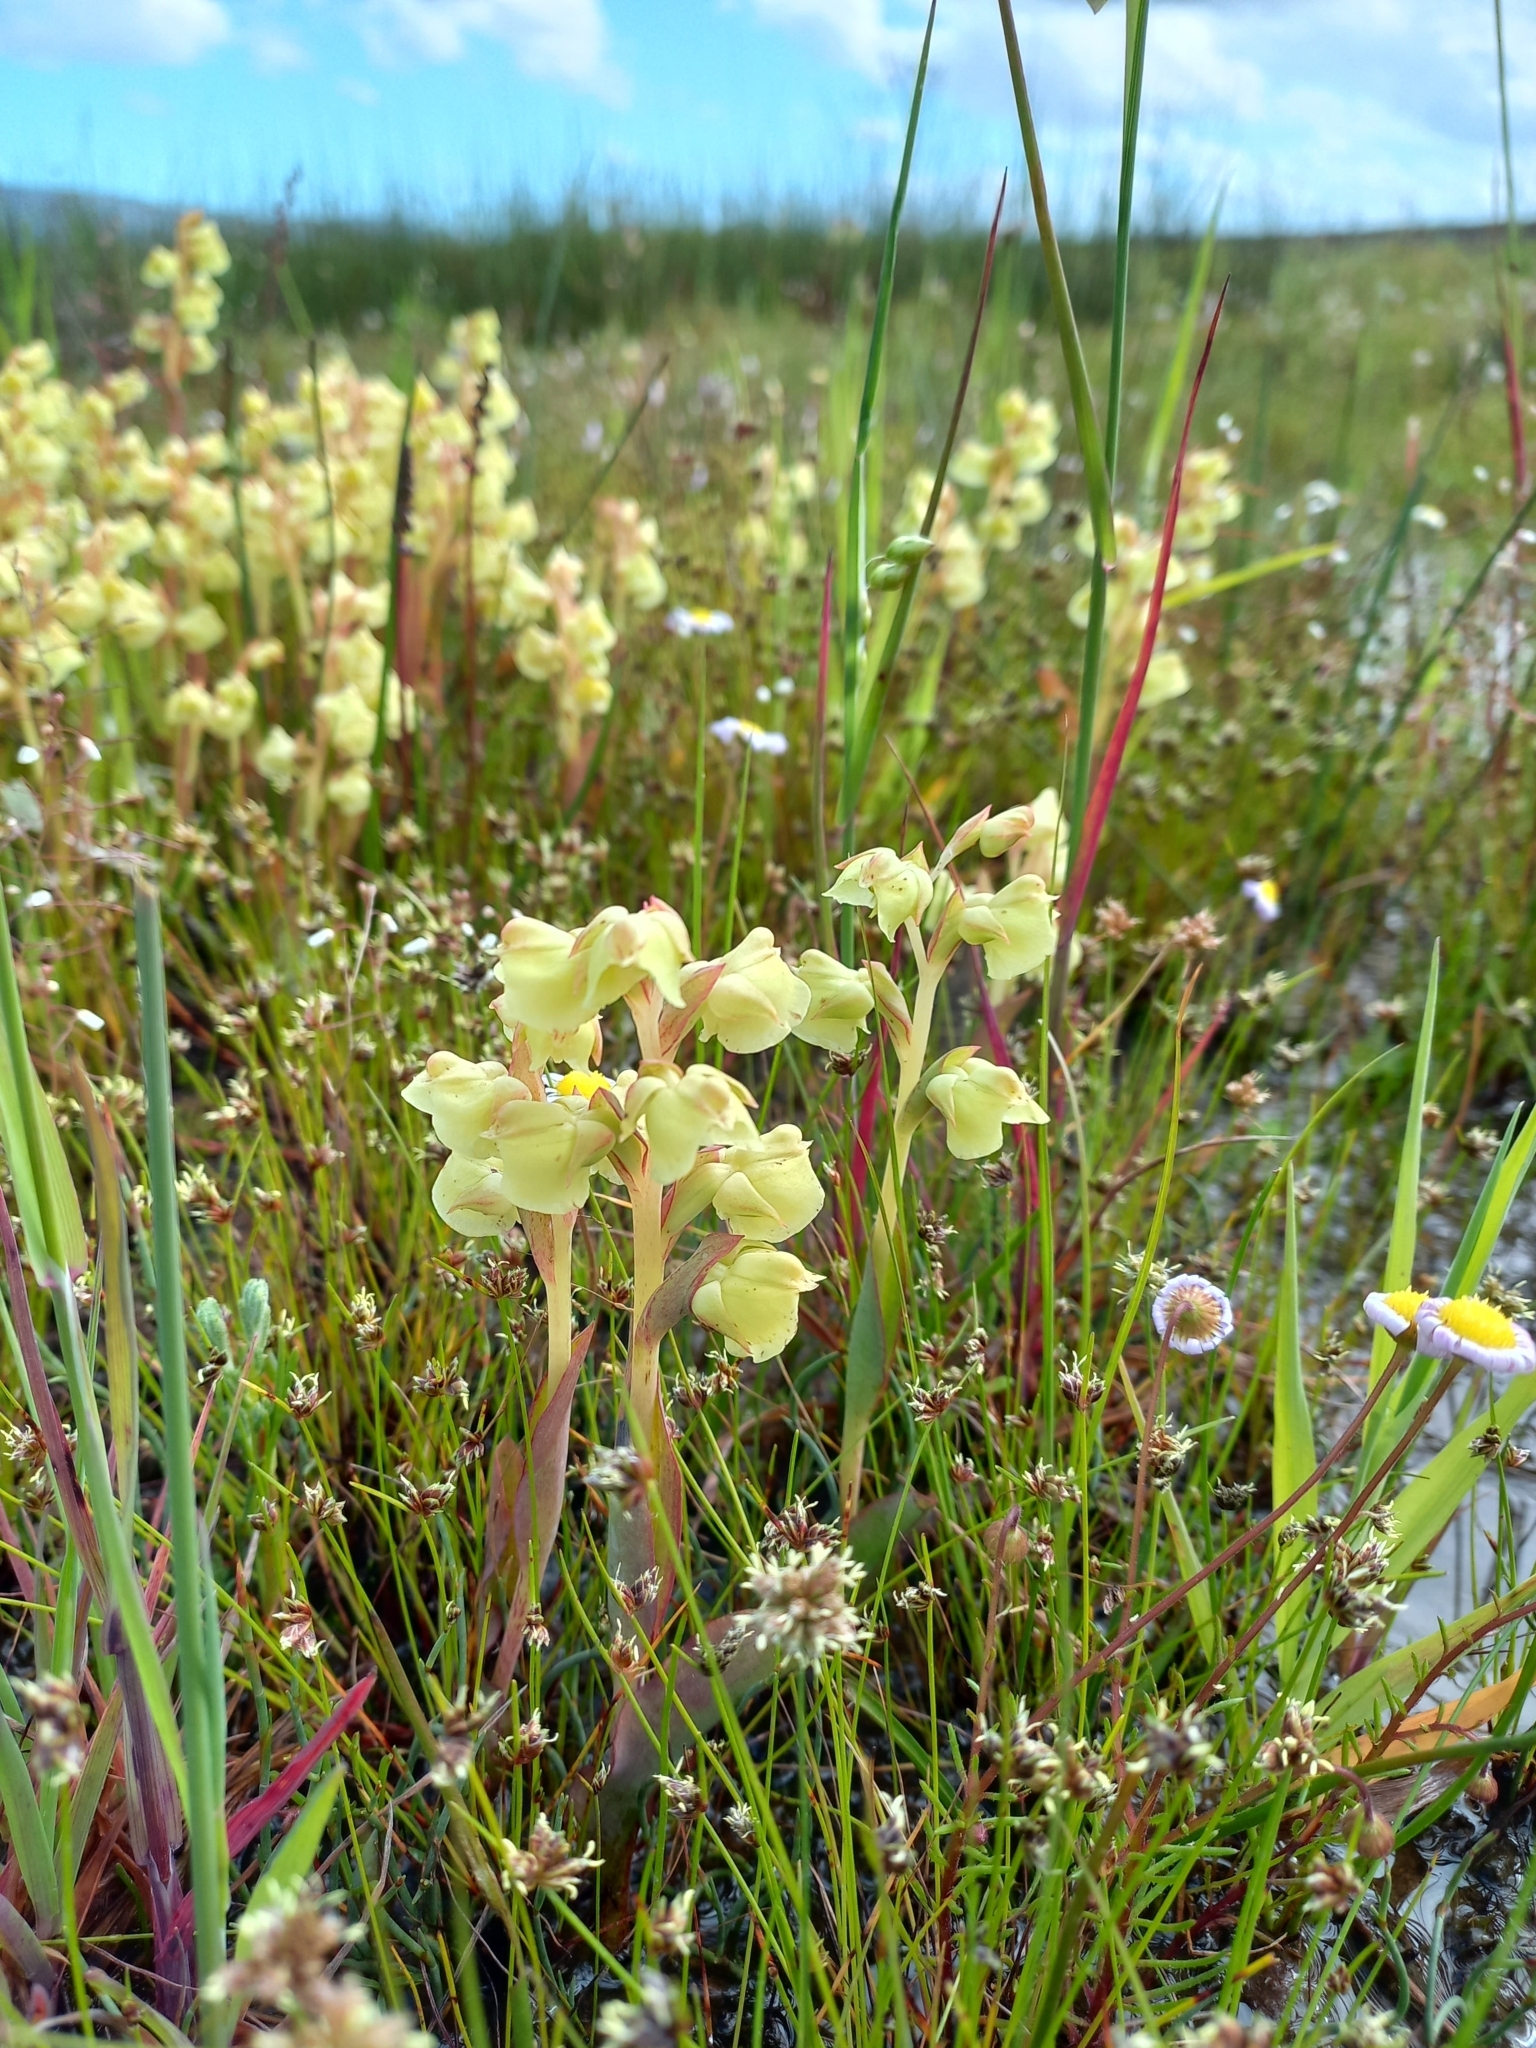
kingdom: Plantae
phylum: Tracheophyta
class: Liliopsida
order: Asparagales
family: Orchidaceae
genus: Pterygodium
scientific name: Pterygodium catholicum
